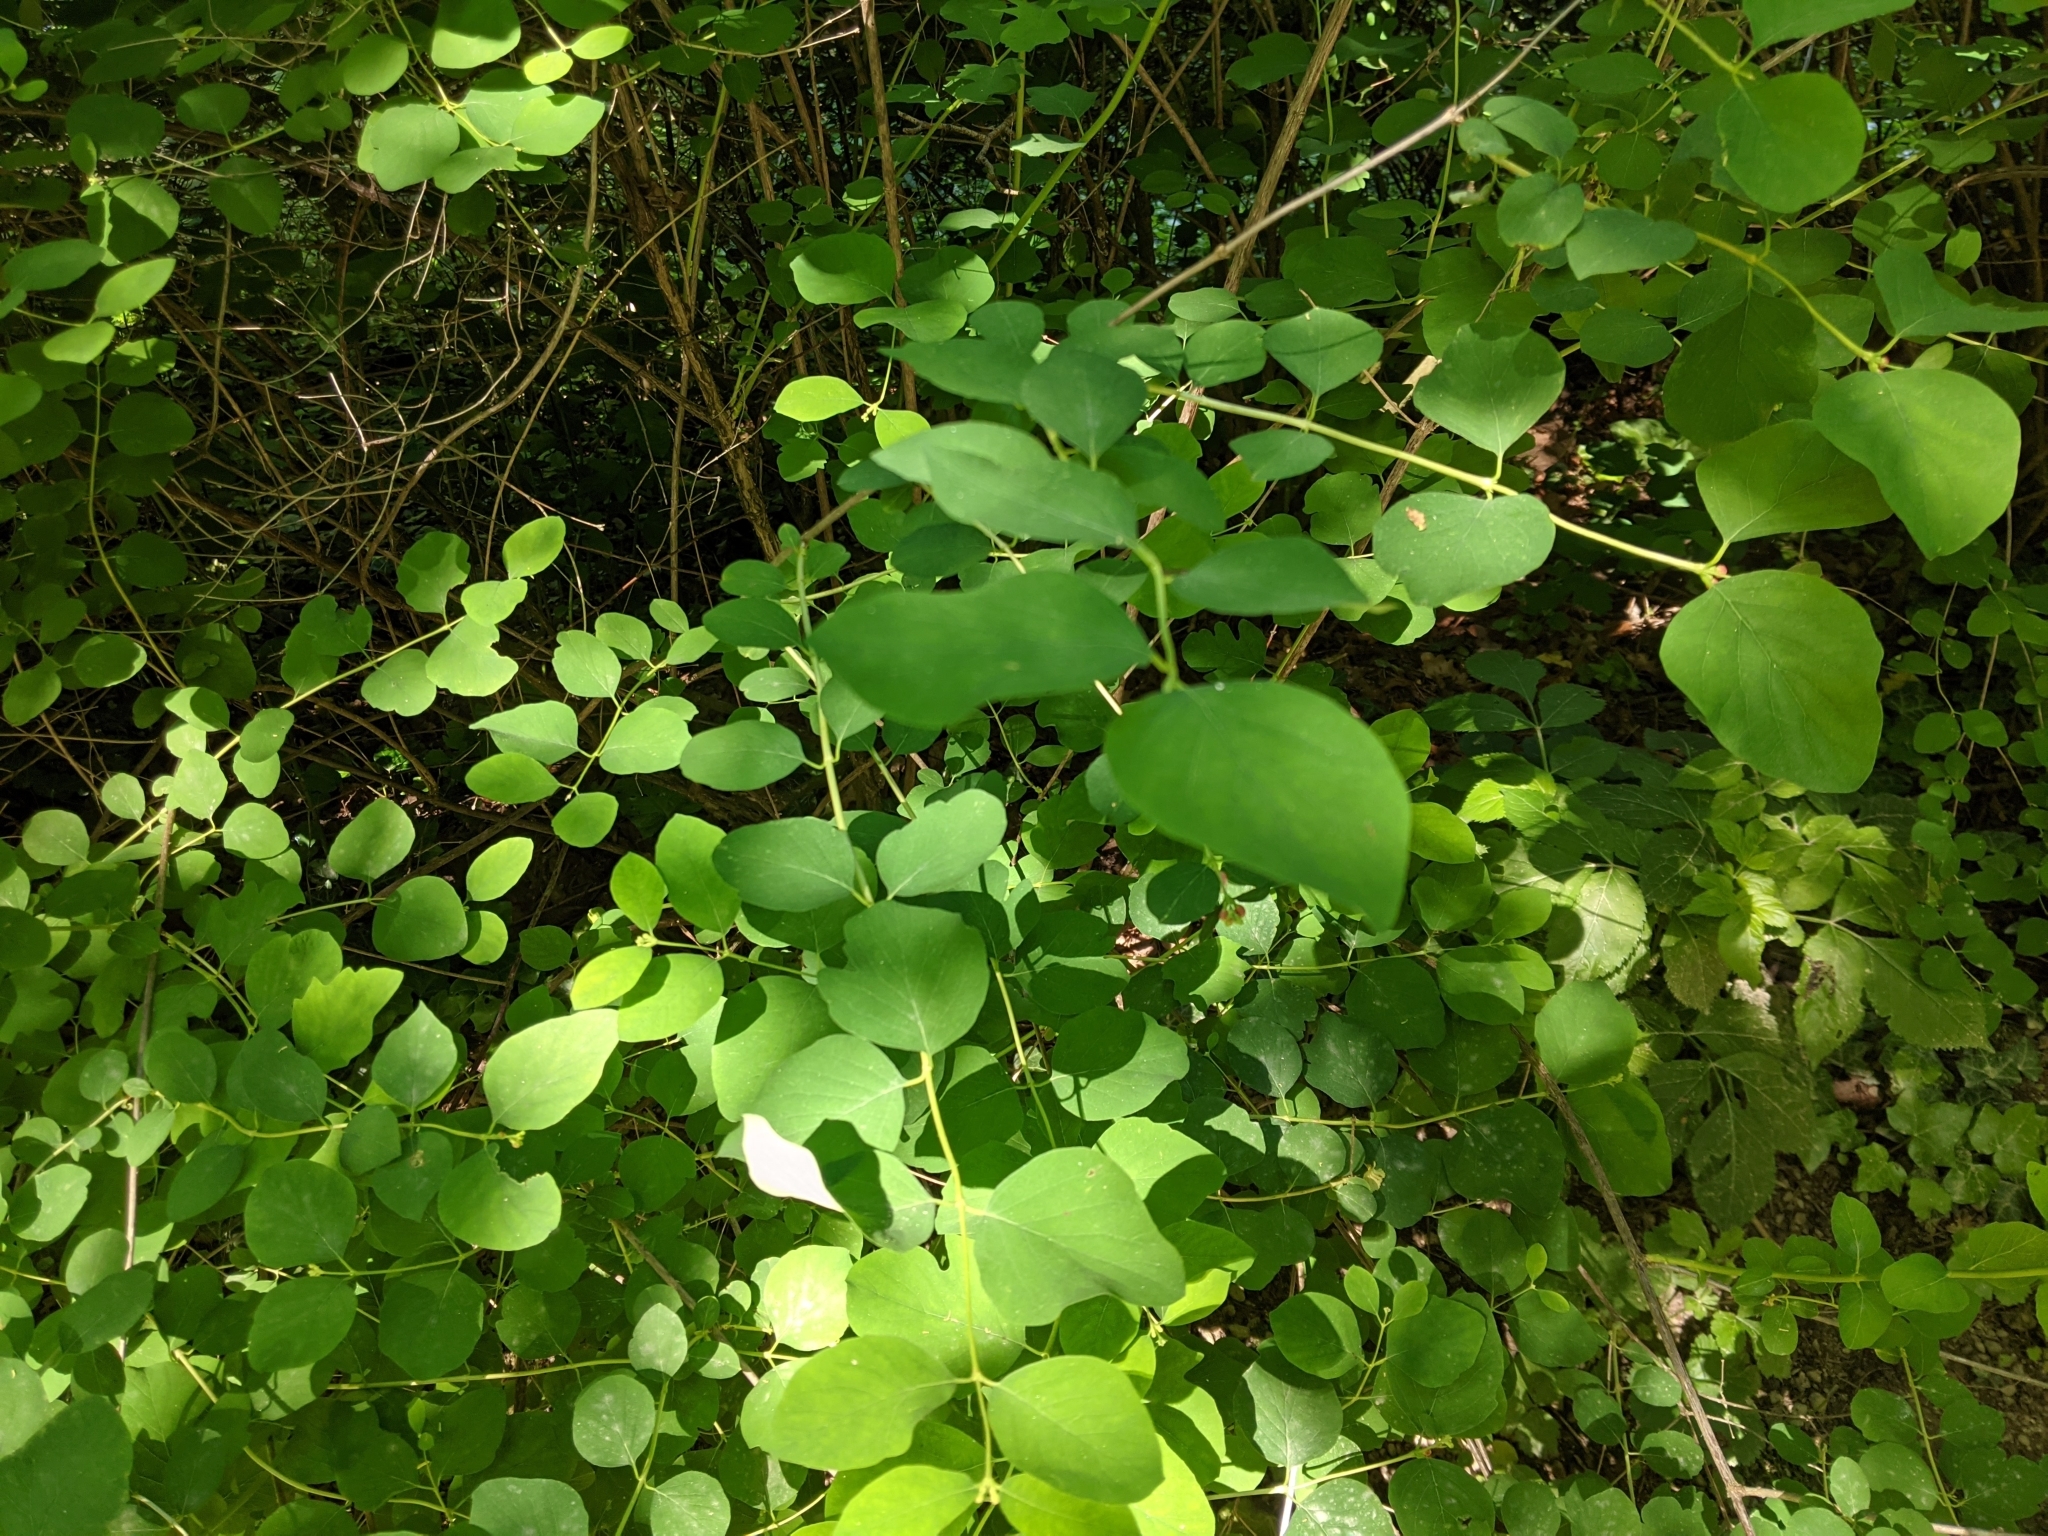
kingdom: Plantae
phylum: Tracheophyta
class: Magnoliopsida
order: Dipsacales
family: Caprifoliaceae
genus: Symphoricarpos
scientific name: Symphoricarpos albus
